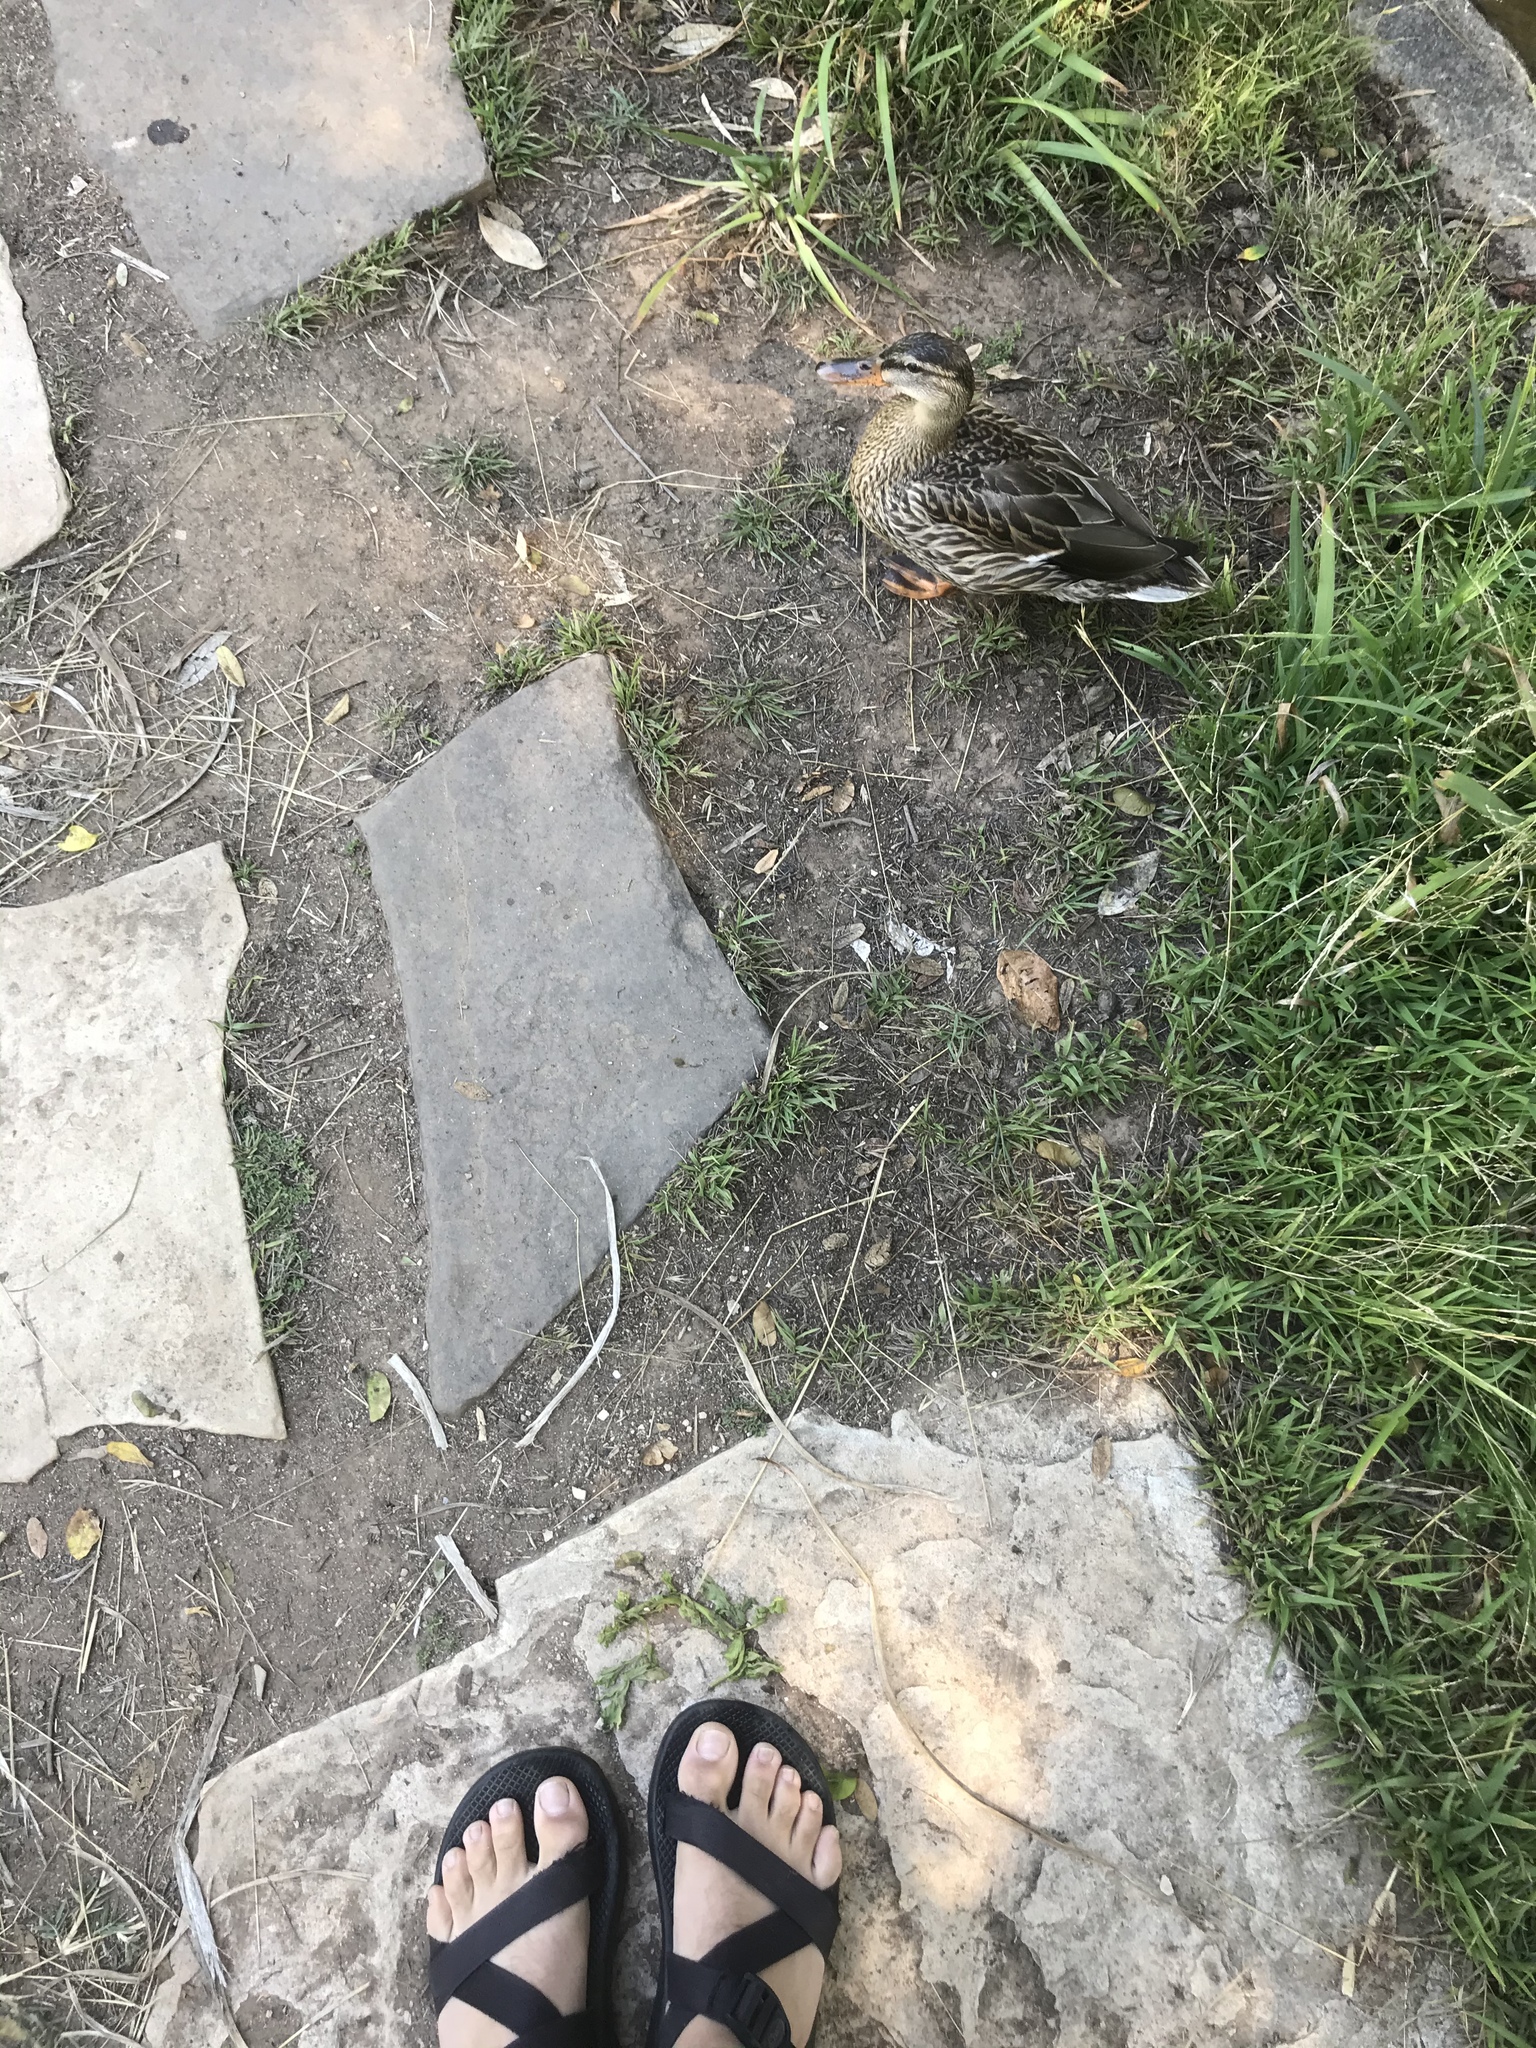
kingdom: Animalia
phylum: Chordata
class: Aves
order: Anseriformes
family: Anatidae
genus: Anas
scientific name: Anas platyrhynchos
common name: Mallard
